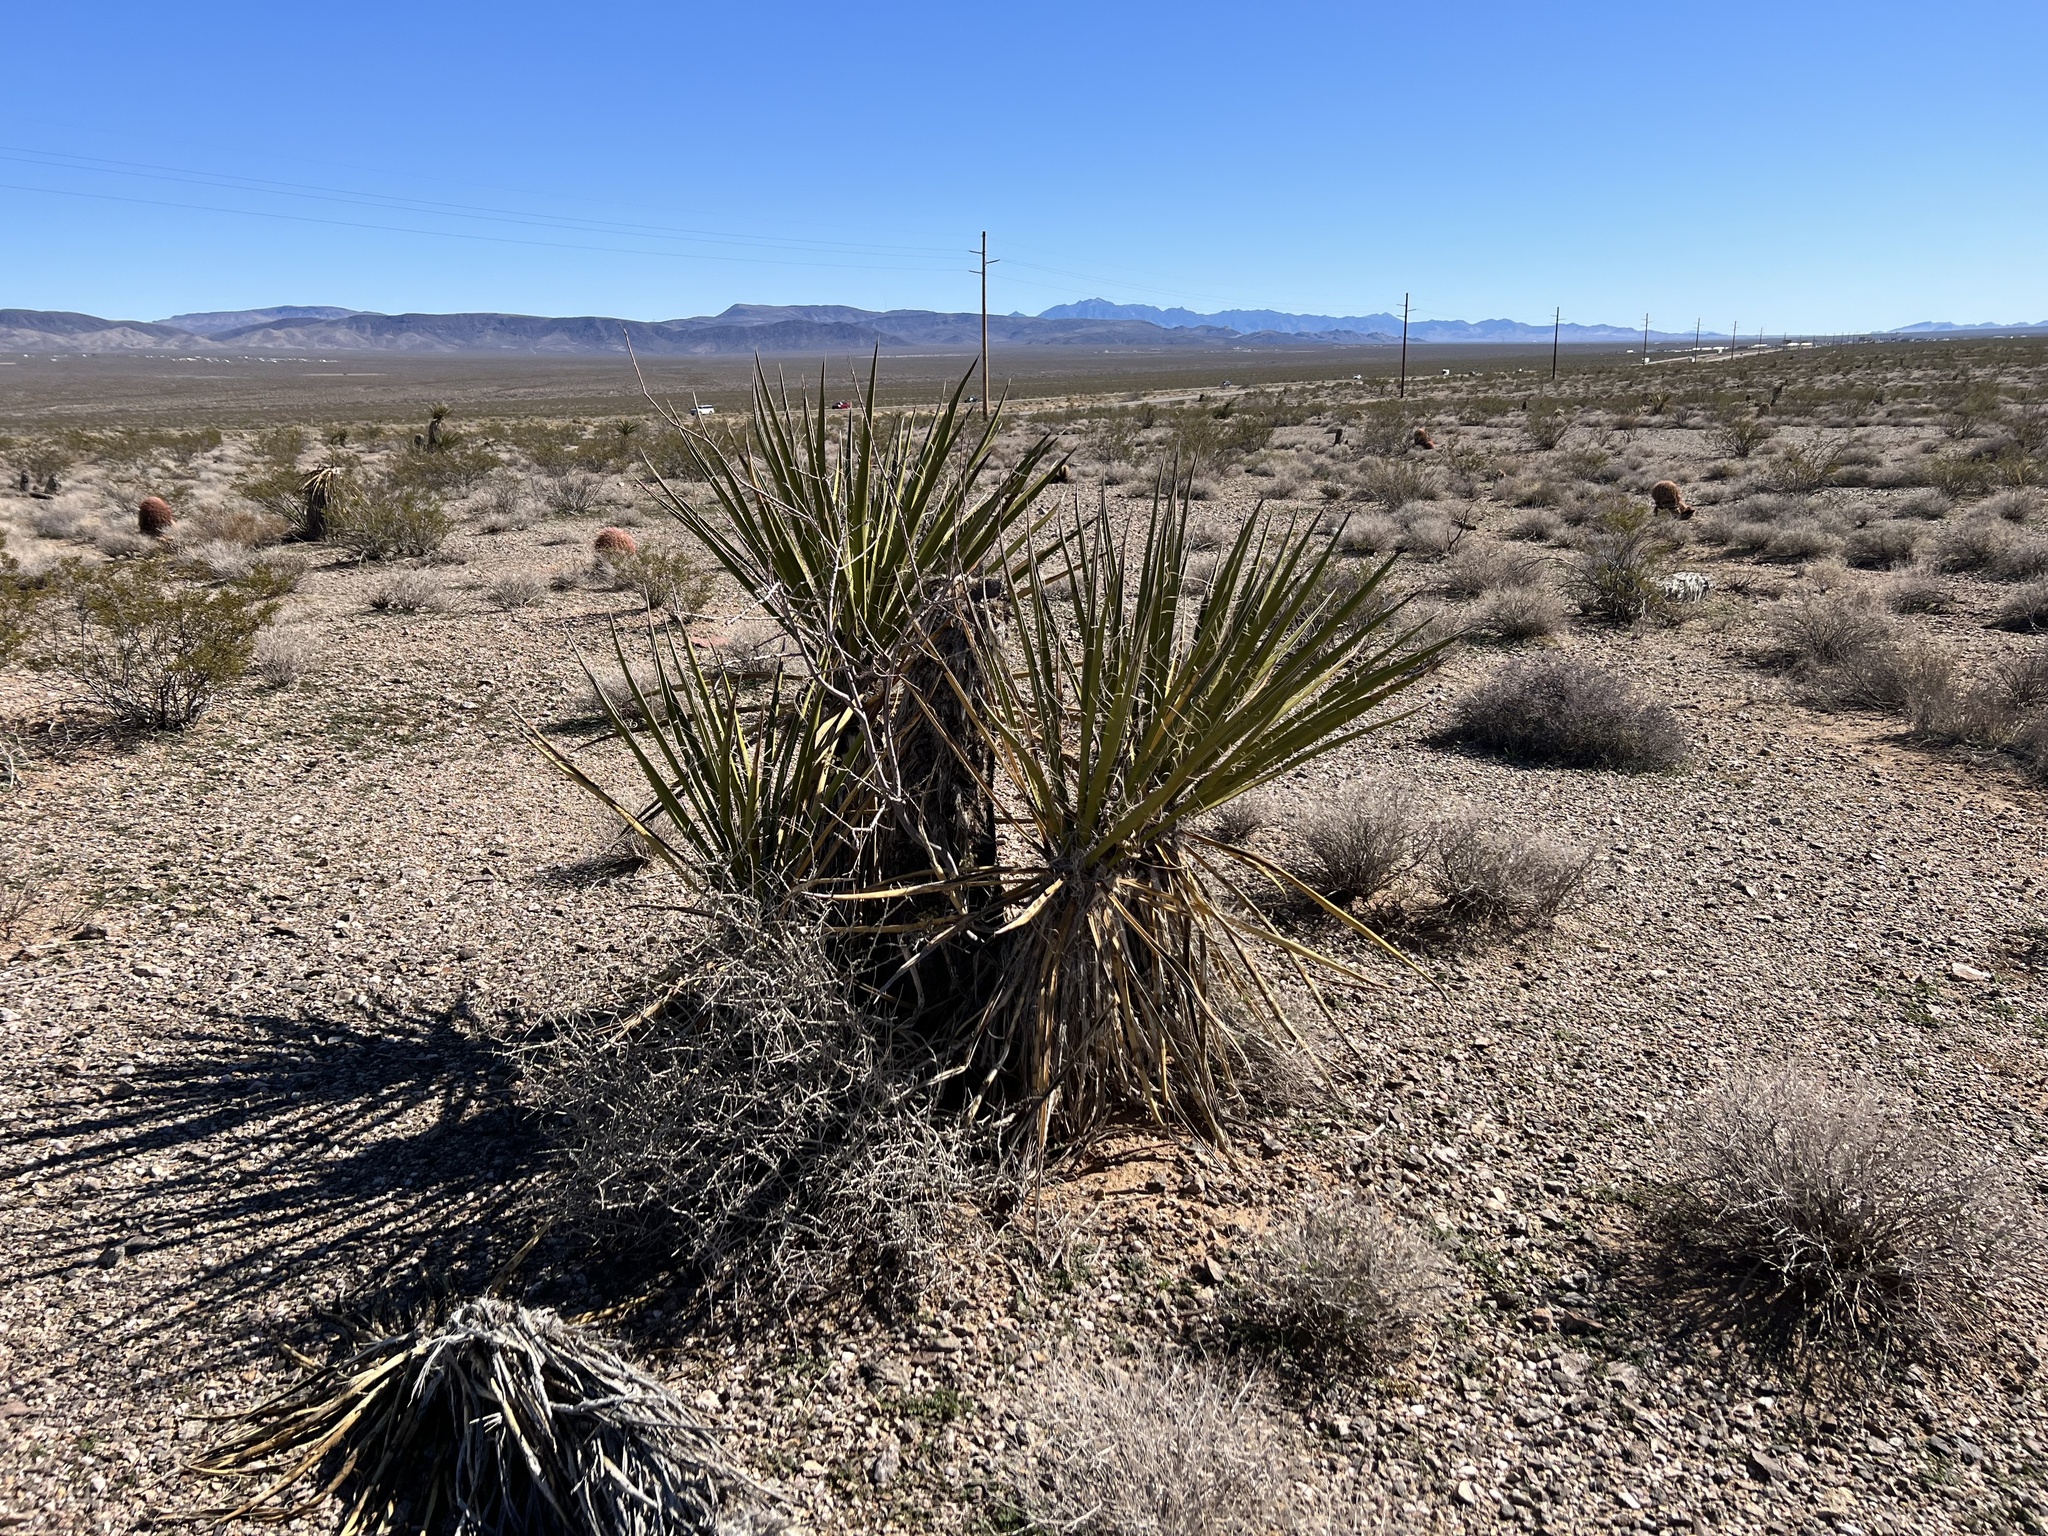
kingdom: Plantae
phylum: Tracheophyta
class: Liliopsida
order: Asparagales
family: Asparagaceae
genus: Yucca
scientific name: Yucca schidigera
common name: Mojave yucca
